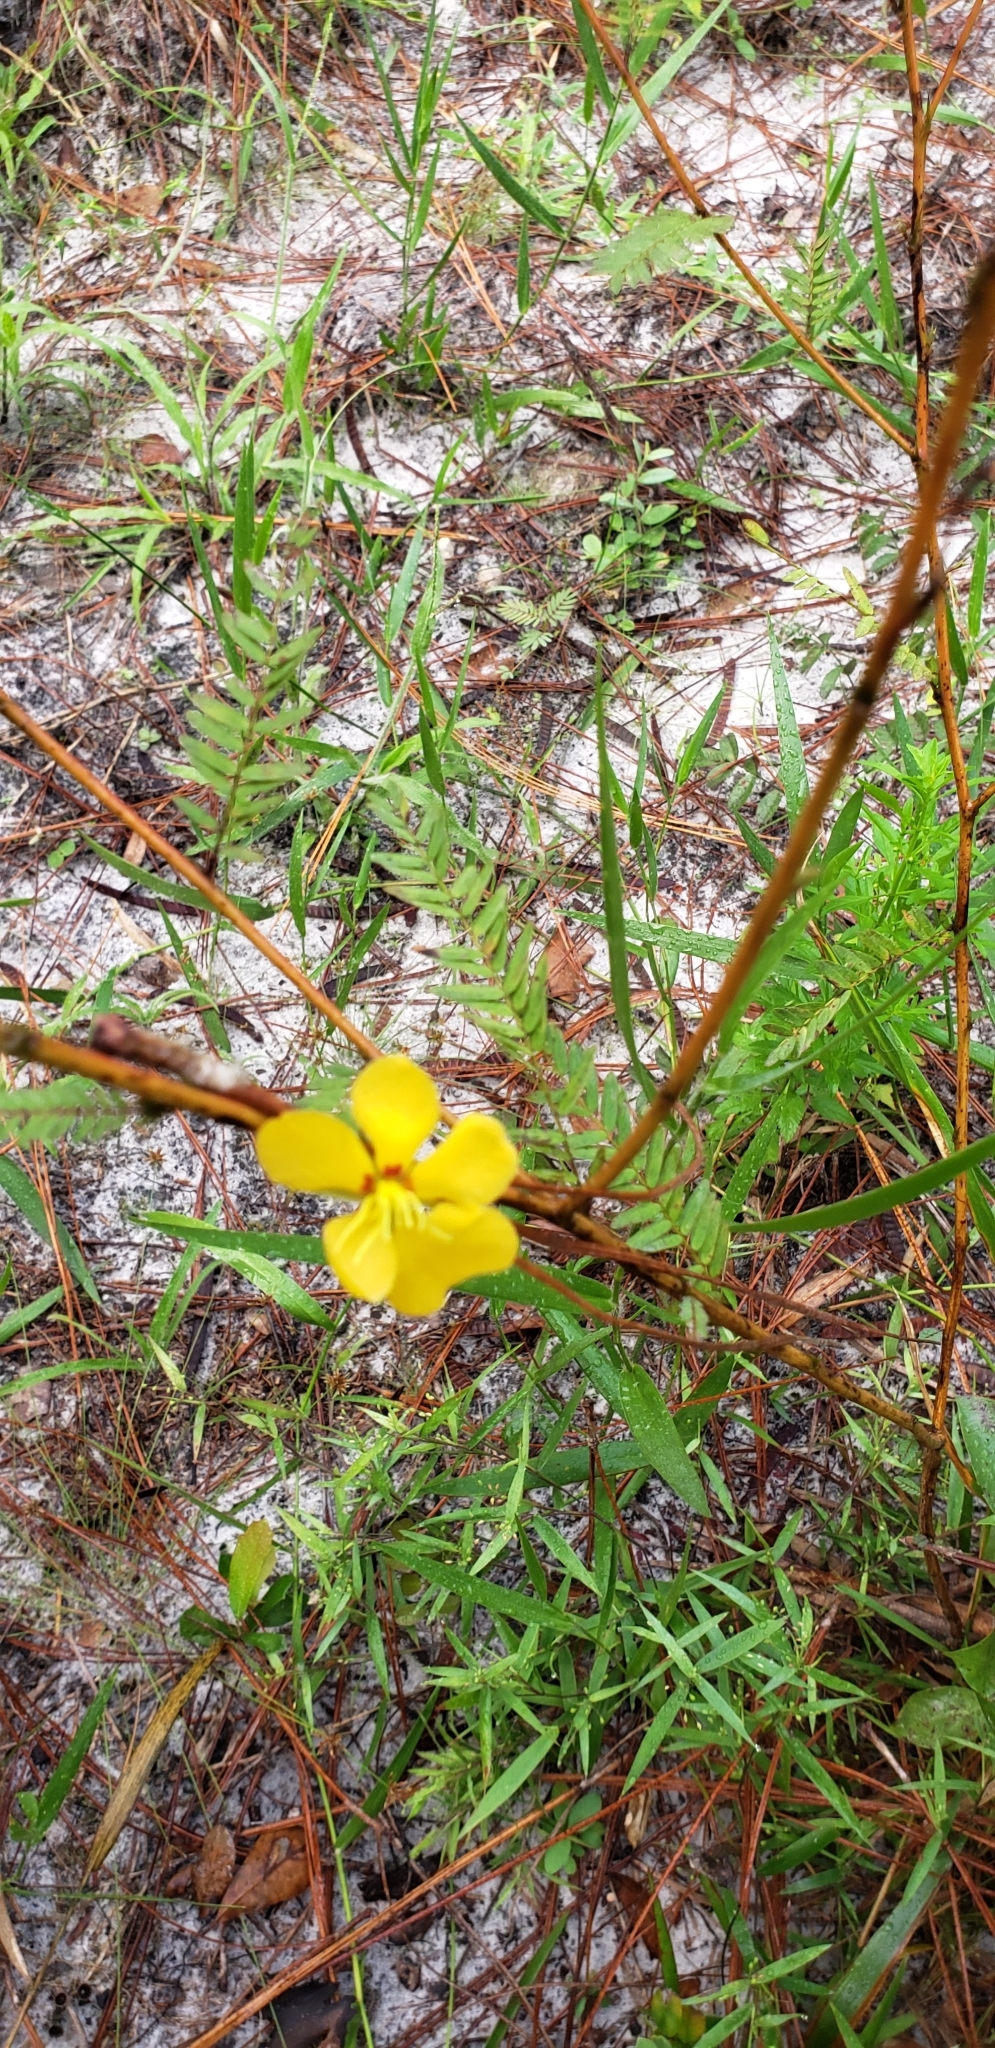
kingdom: Plantae
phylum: Tracheophyta
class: Magnoliopsida
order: Fabales
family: Fabaceae
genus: Chamaecrista
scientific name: Chamaecrista fasciculata
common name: Golden cassia
